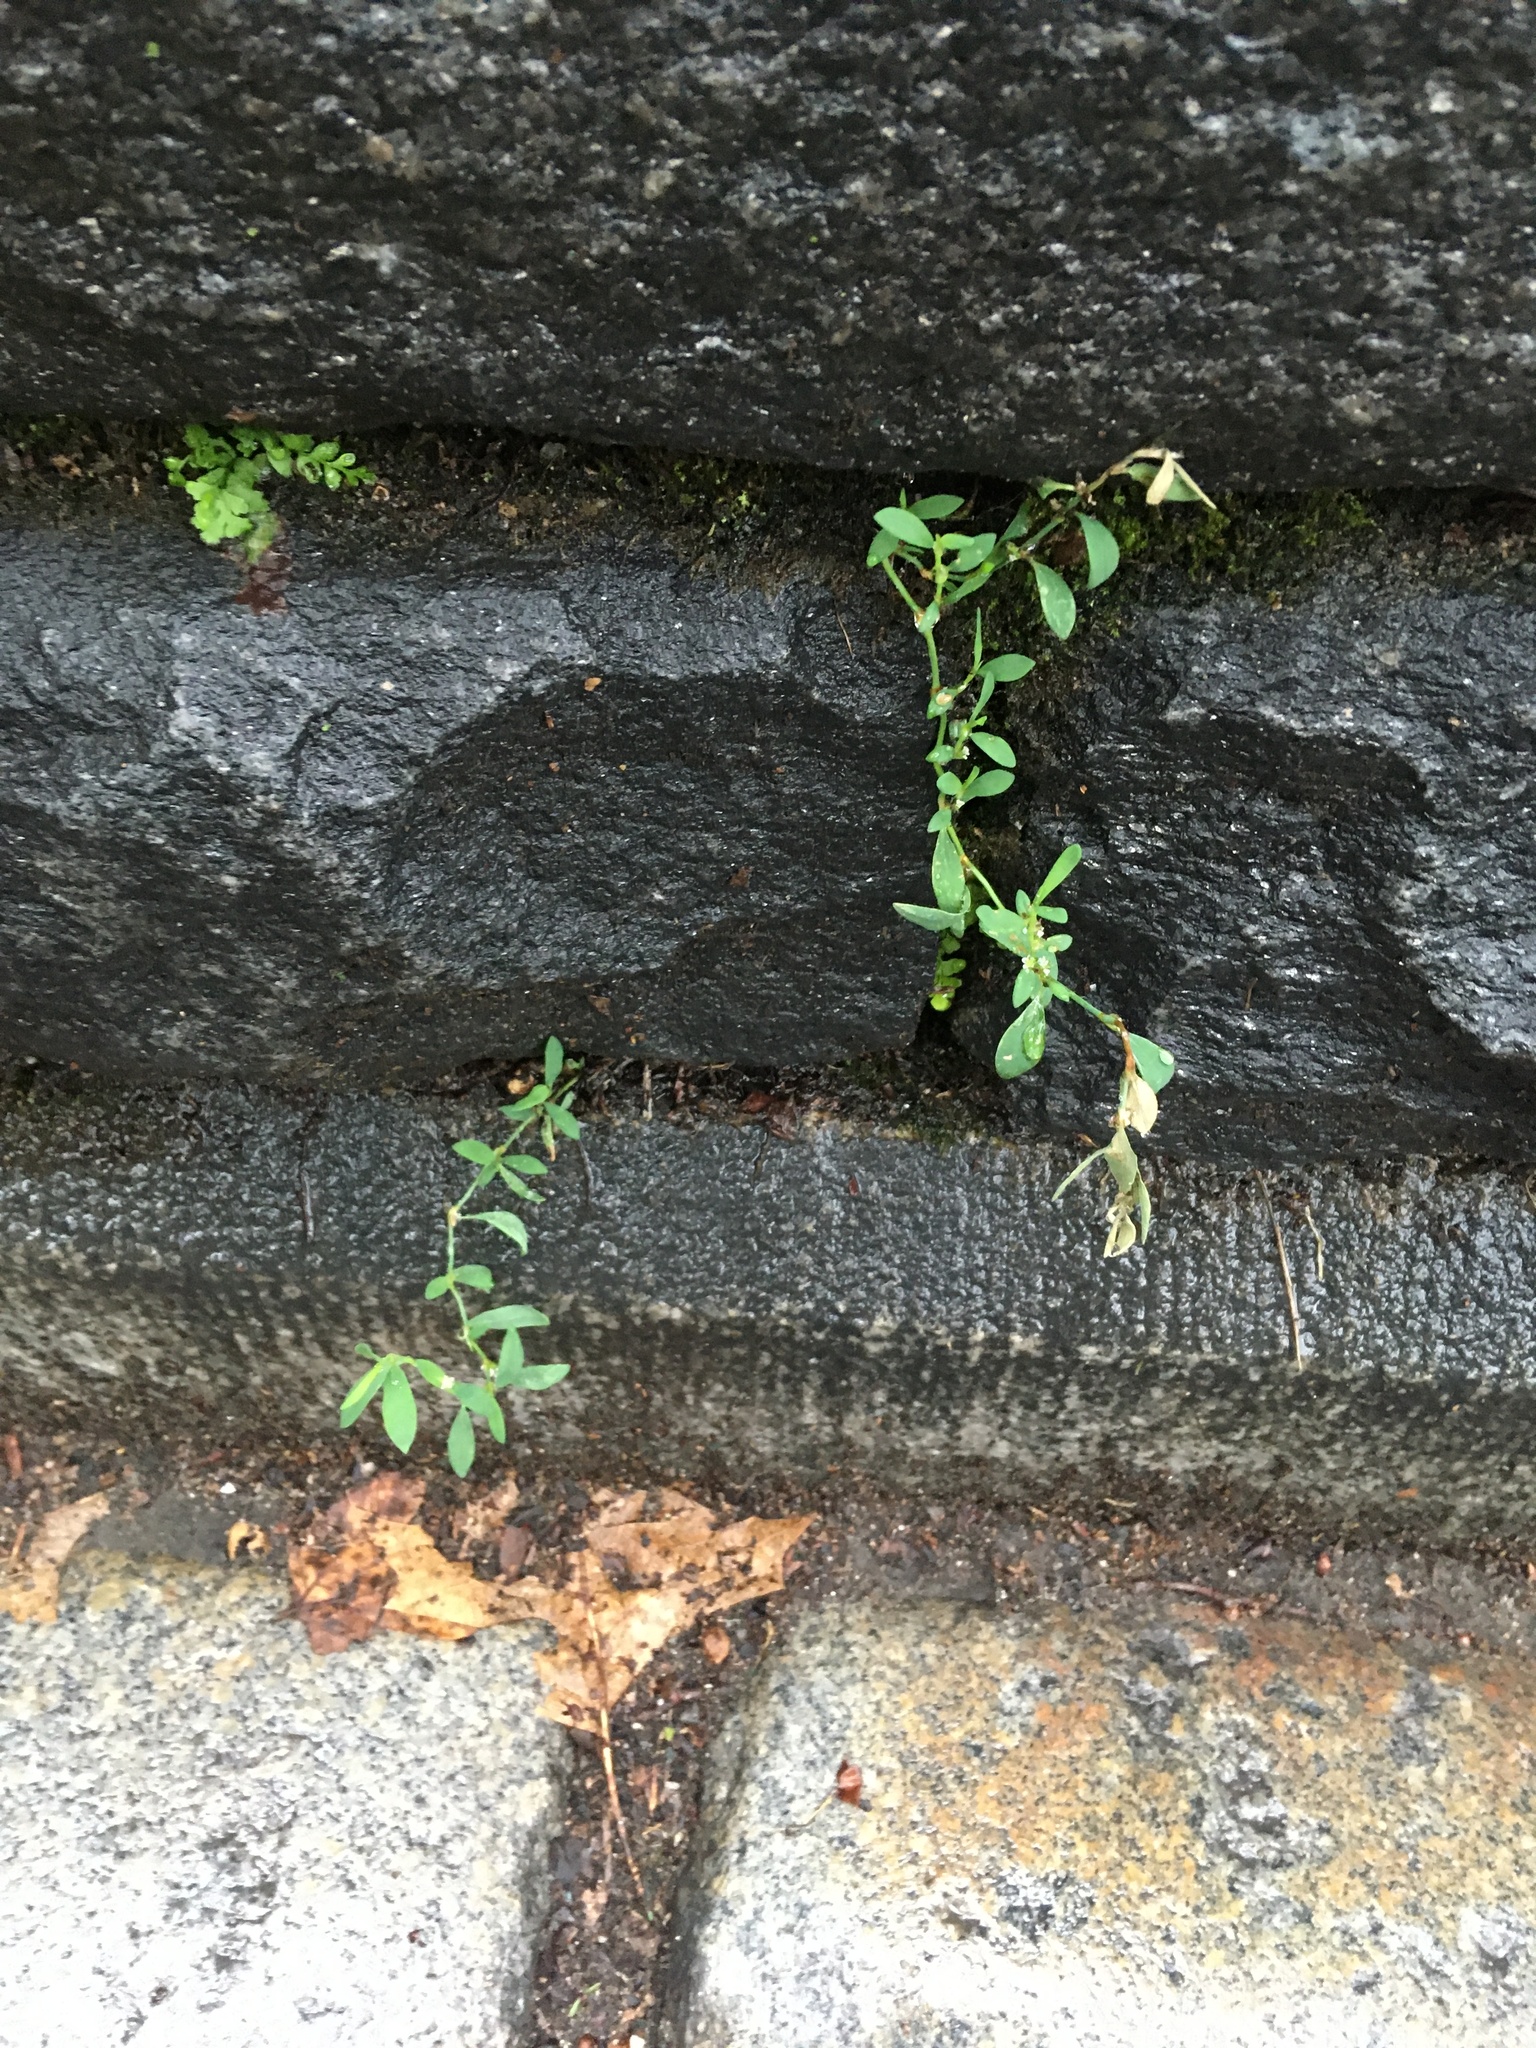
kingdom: Plantae
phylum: Tracheophyta
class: Magnoliopsida
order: Caryophyllales
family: Polygonaceae
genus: Polygonum
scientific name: Polygonum aviculare
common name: Prostrate knotweed
